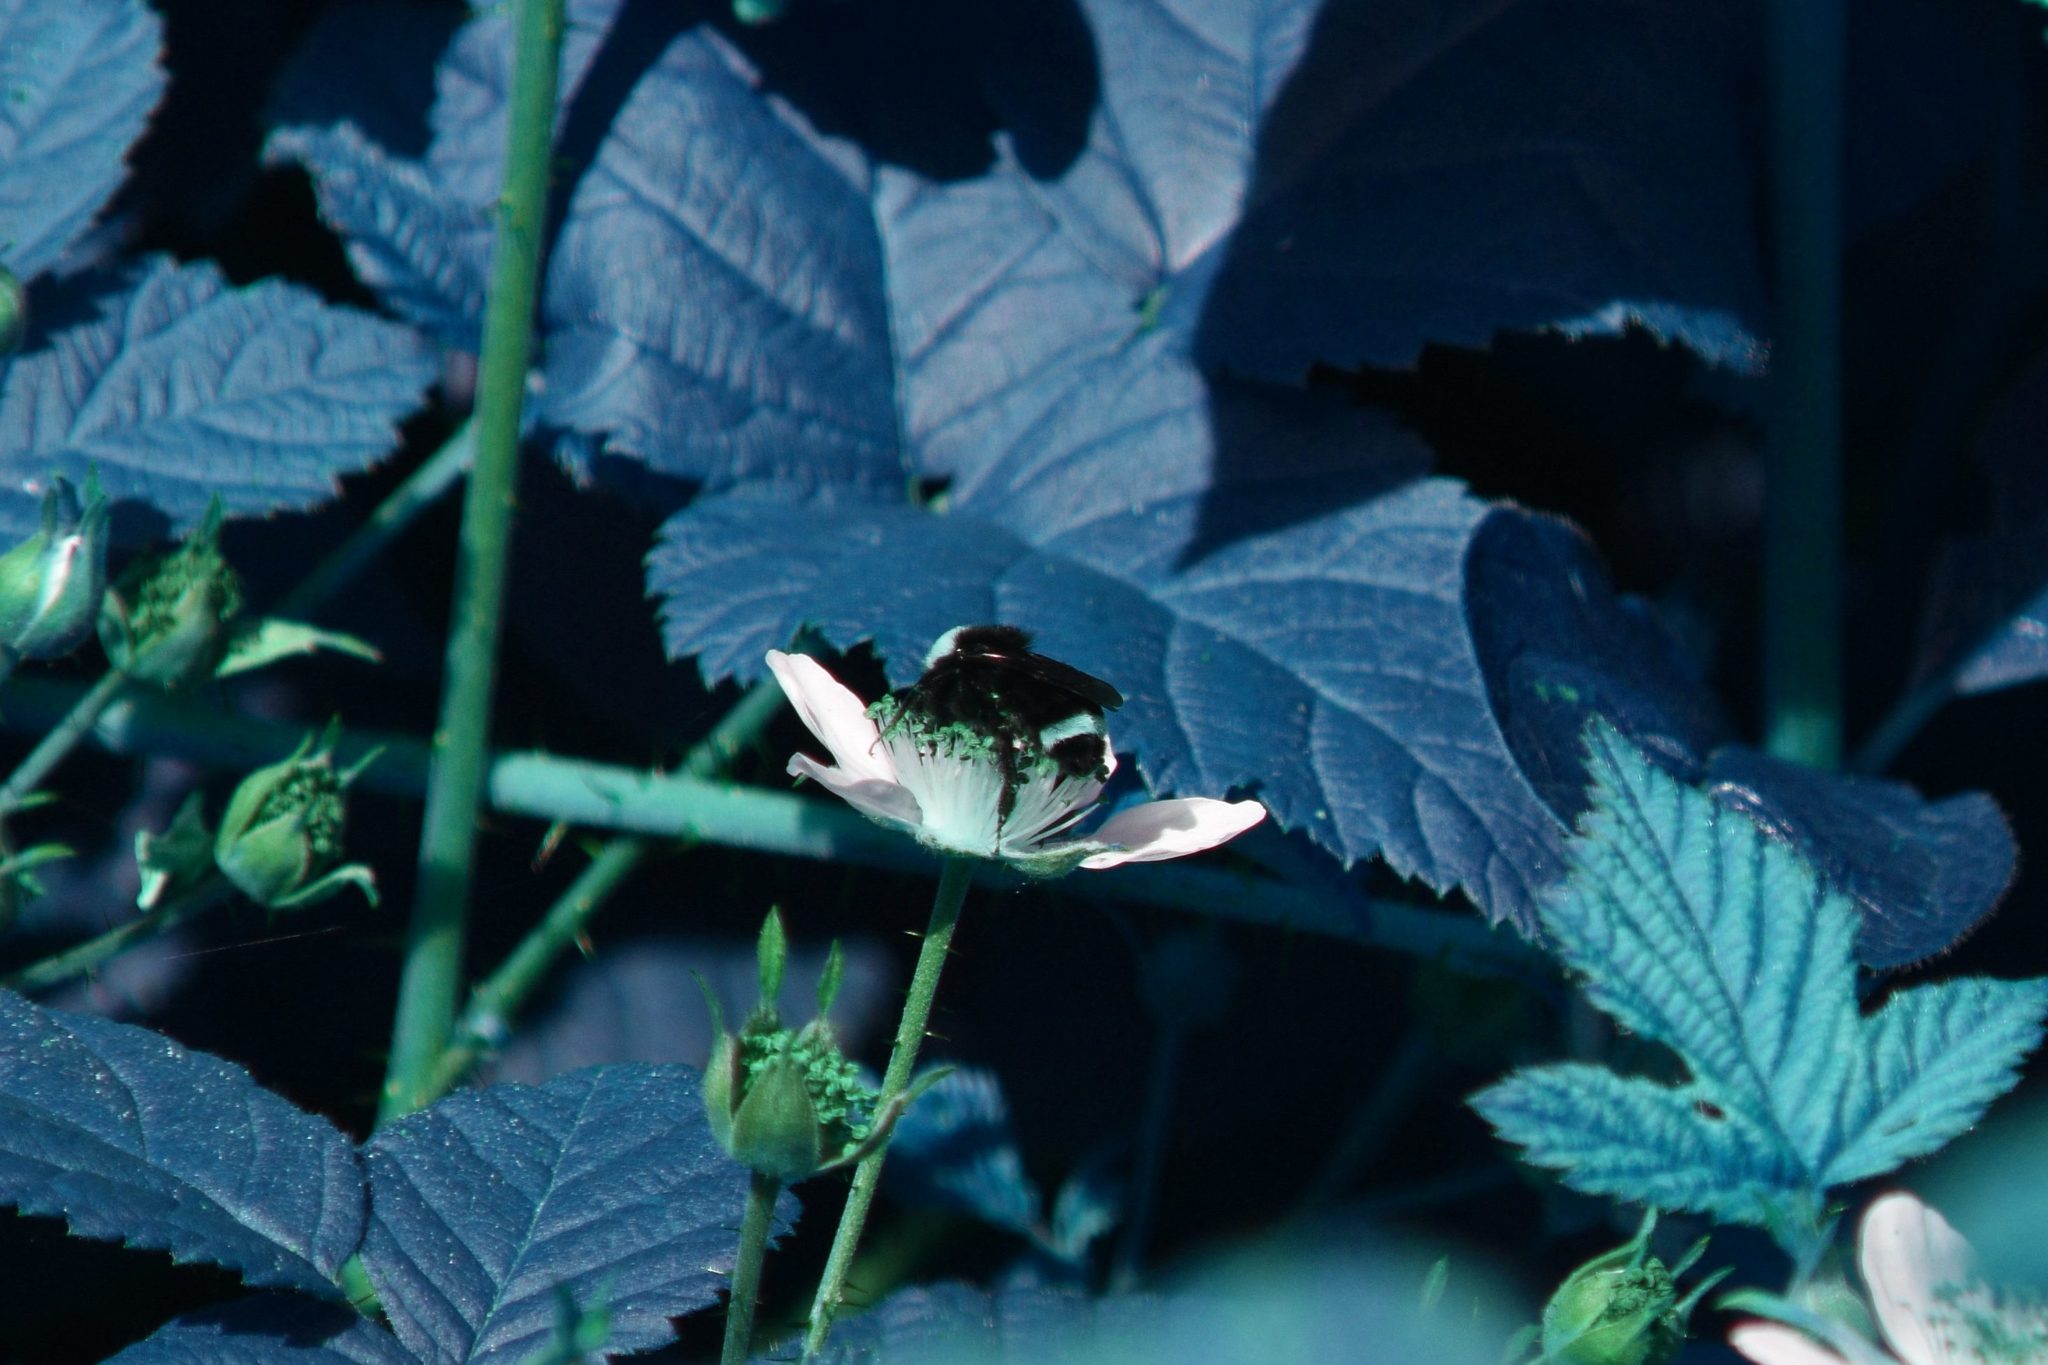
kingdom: Animalia
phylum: Arthropoda
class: Insecta
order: Hymenoptera
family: Apidae
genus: Pyrobombus
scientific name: Pyrobombus
